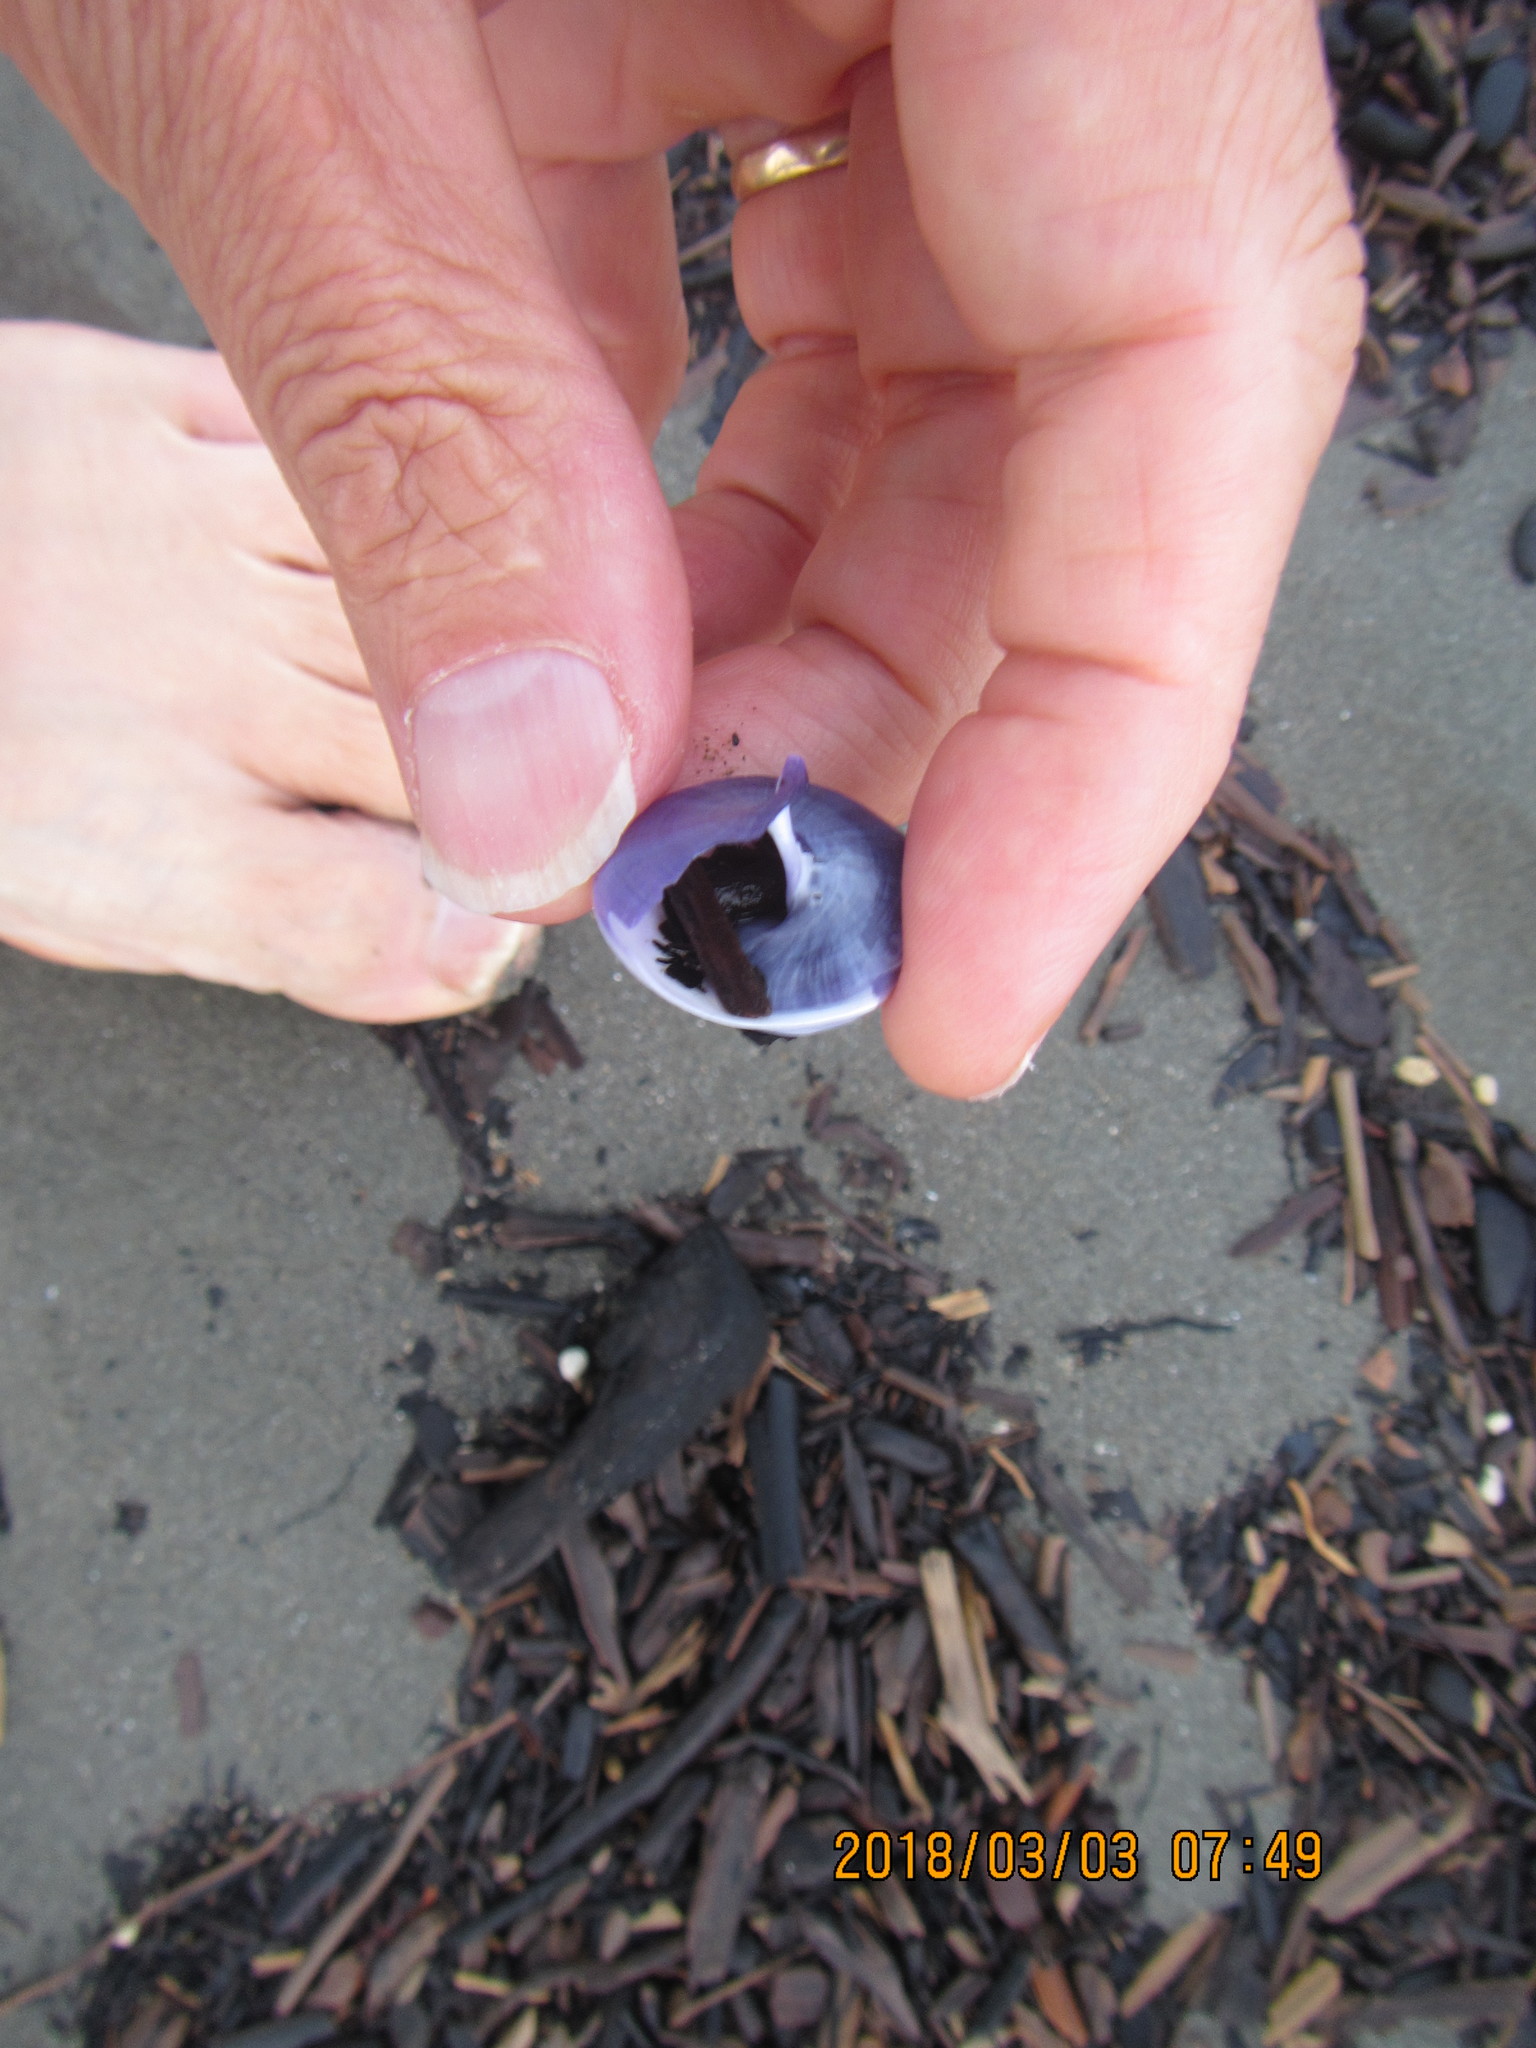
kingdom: Animalia
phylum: Mollusca
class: Gastropoda
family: Epitoniidae
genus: Janthina
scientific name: Janthina janthina
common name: Common janthina
